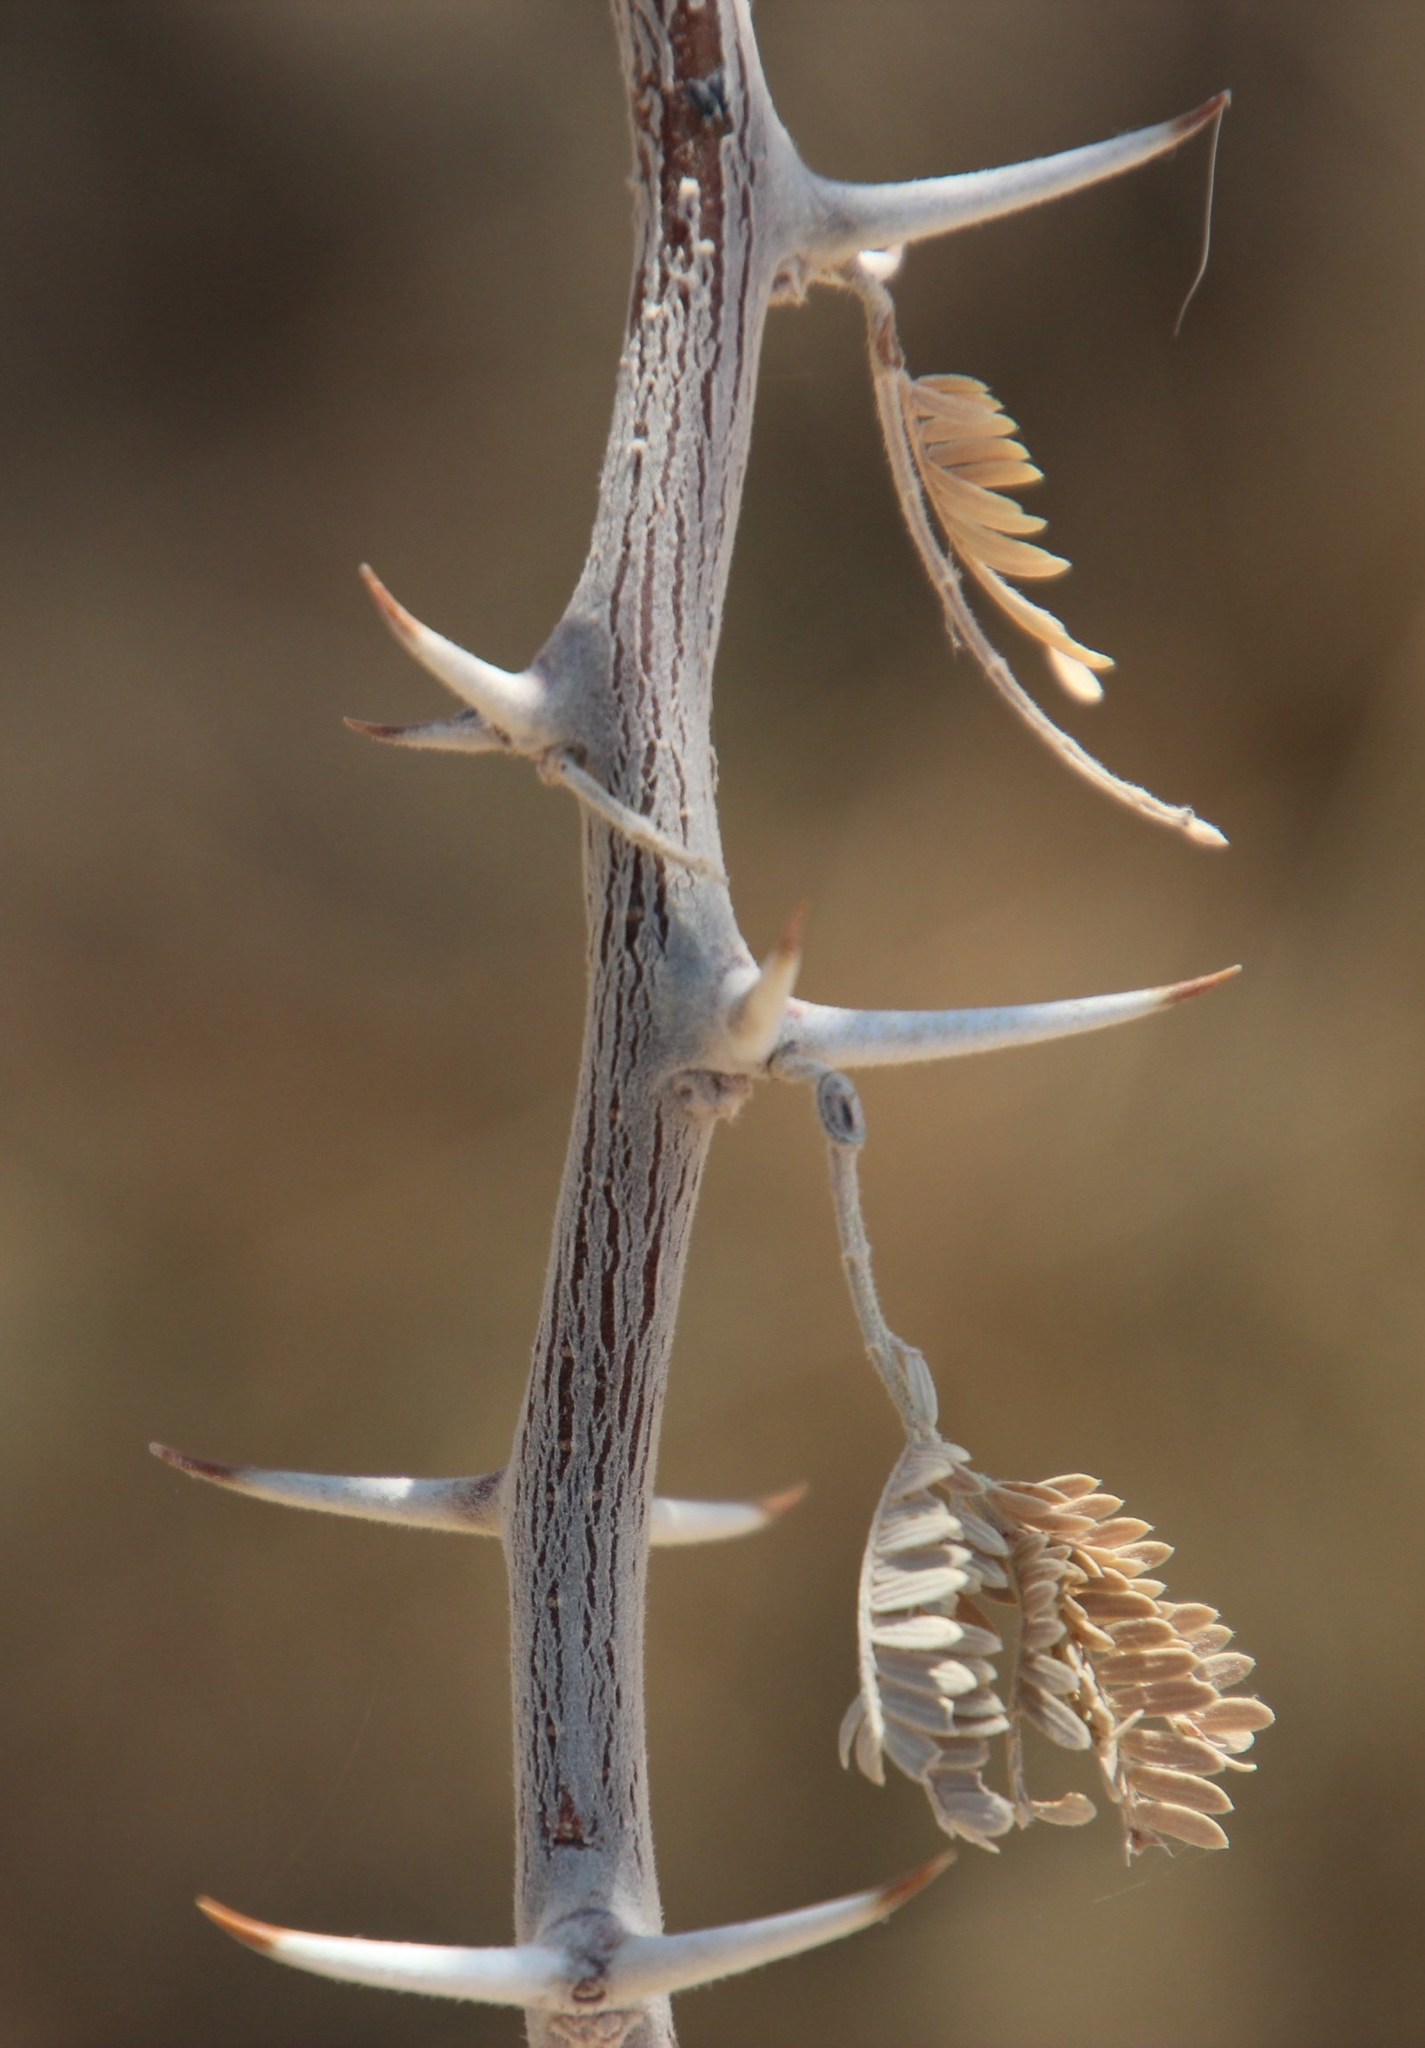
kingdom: Plantae
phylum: Tracheophyta
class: Magnoliopsida
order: Fabales
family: Fabaceae
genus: Vachellia
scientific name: Vachellia hebeclada
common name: Candle thorn
